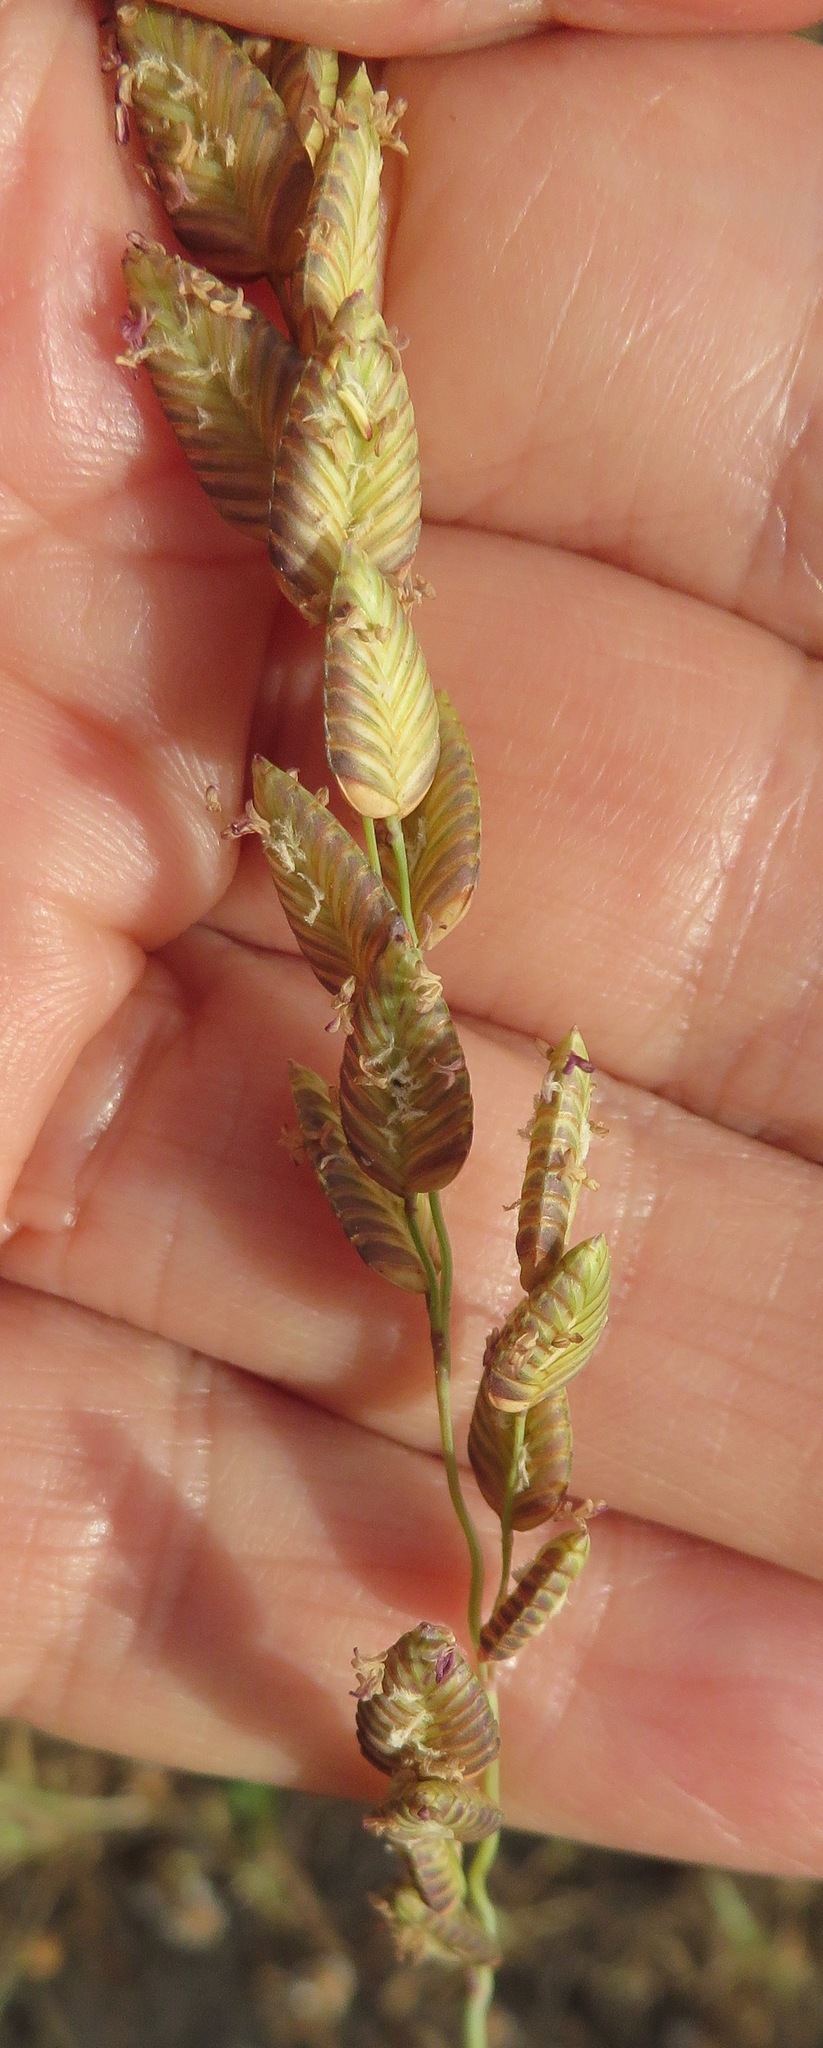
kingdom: Plantae
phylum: Tracheophyta
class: Liliopsida
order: Poales
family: Poaceae
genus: Eragrostis
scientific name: Eragrostis capensis
